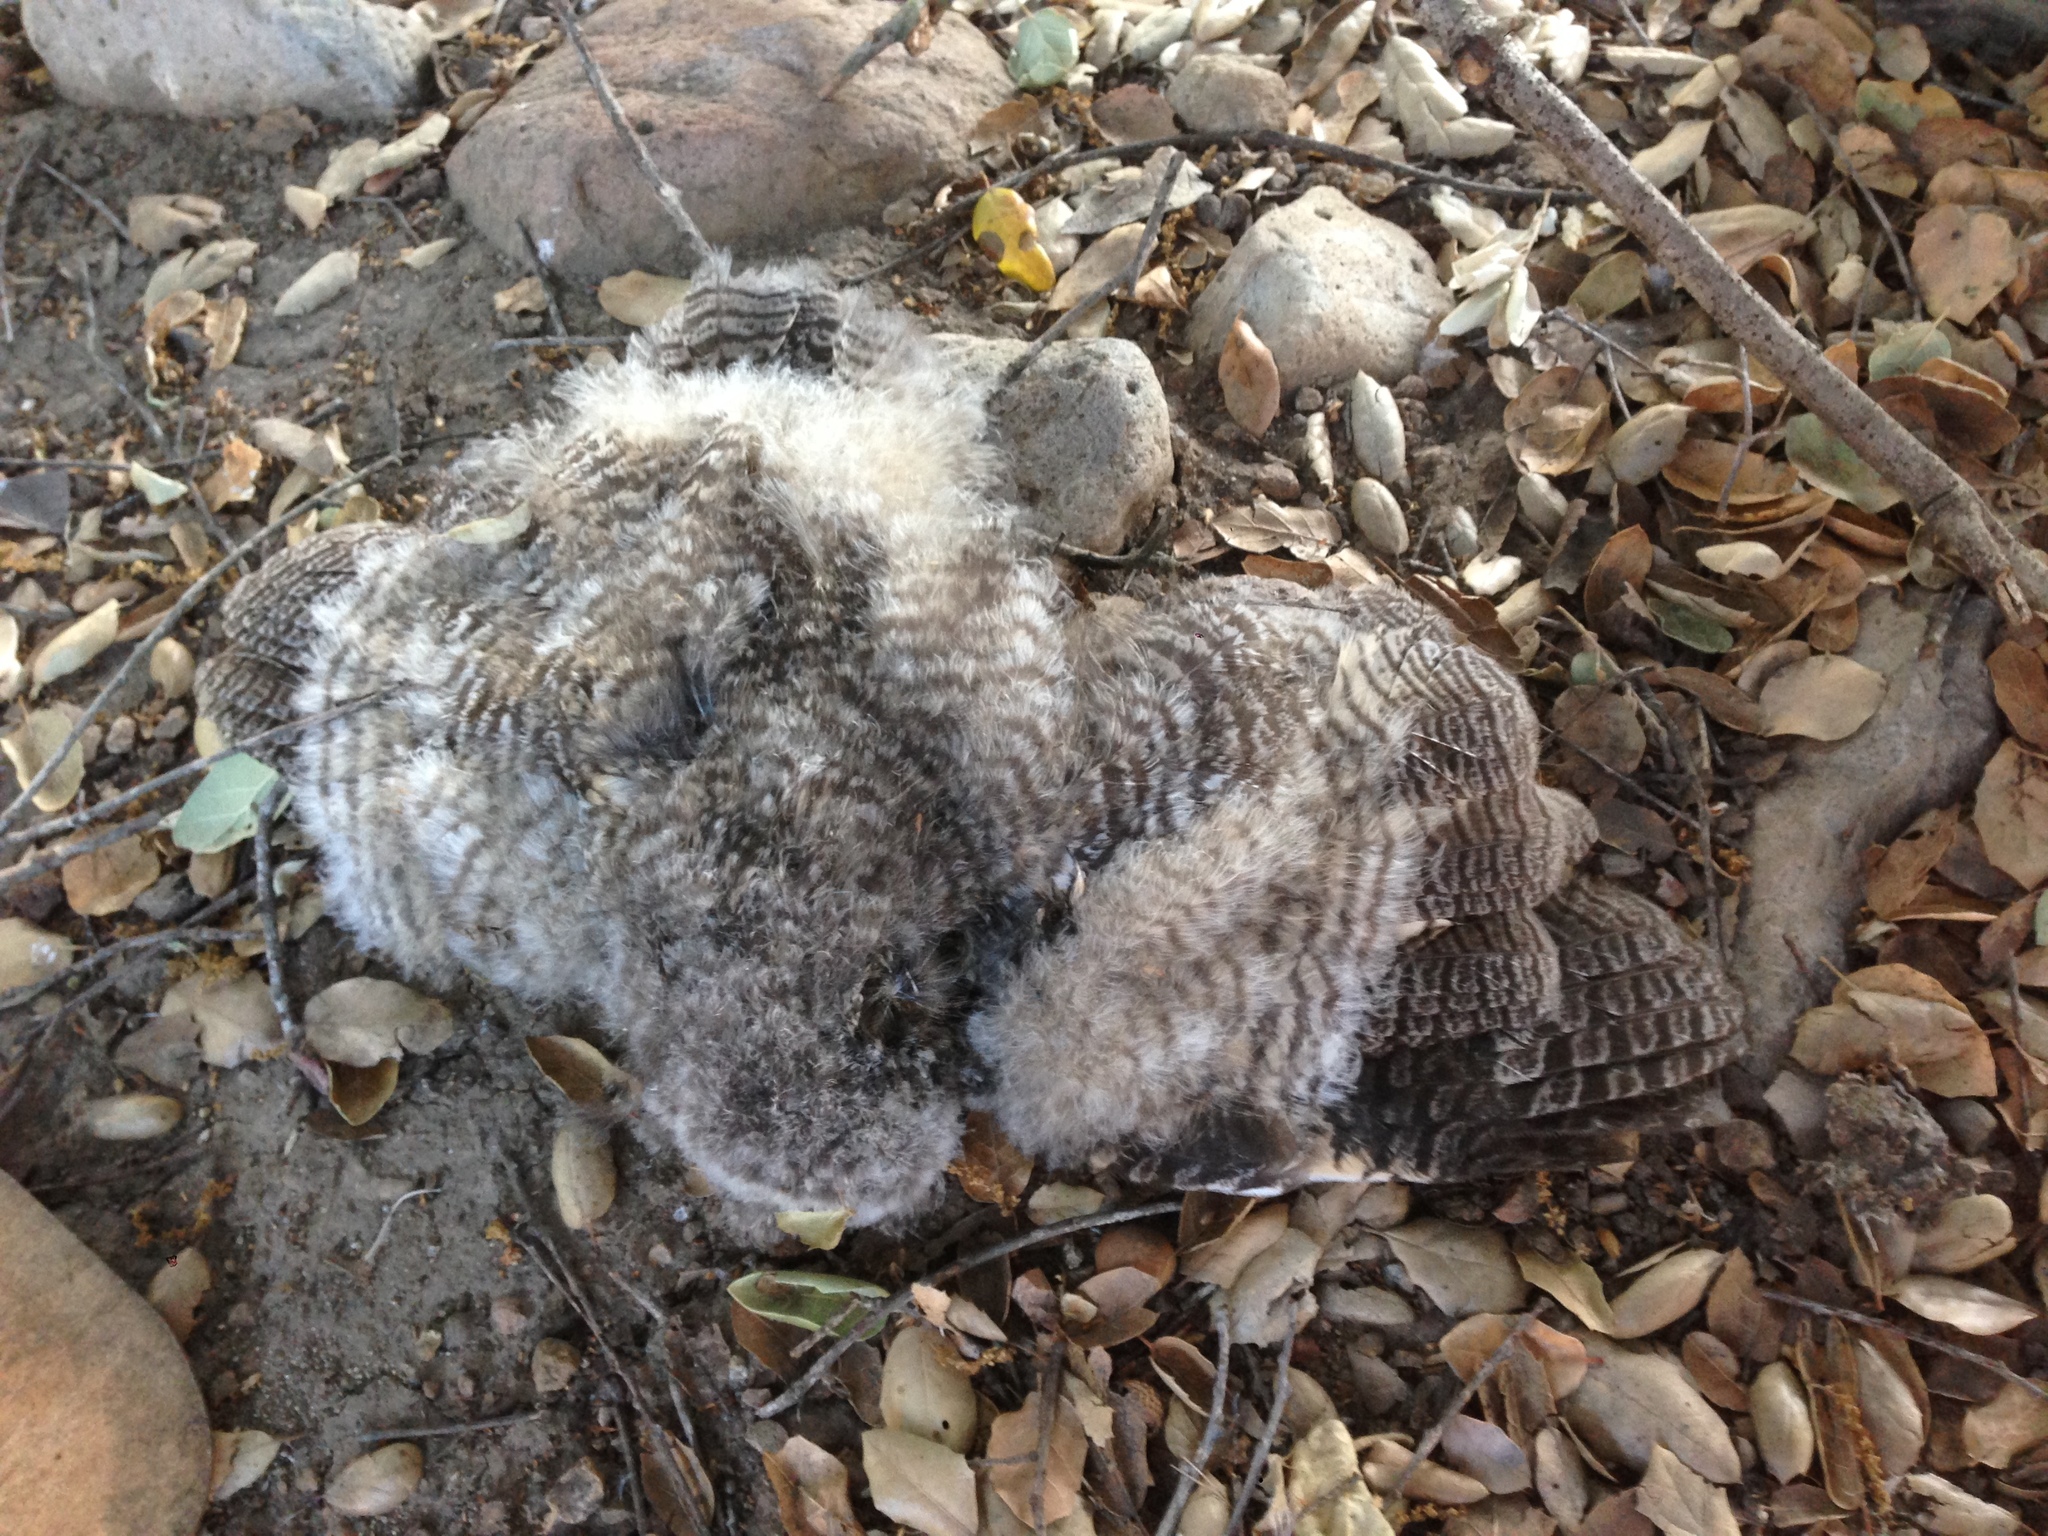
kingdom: Animalia
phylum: Chordata
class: Aves
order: Strigiformes
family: Strigidae
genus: Asio
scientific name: Asio otus
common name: Long-eared owl
